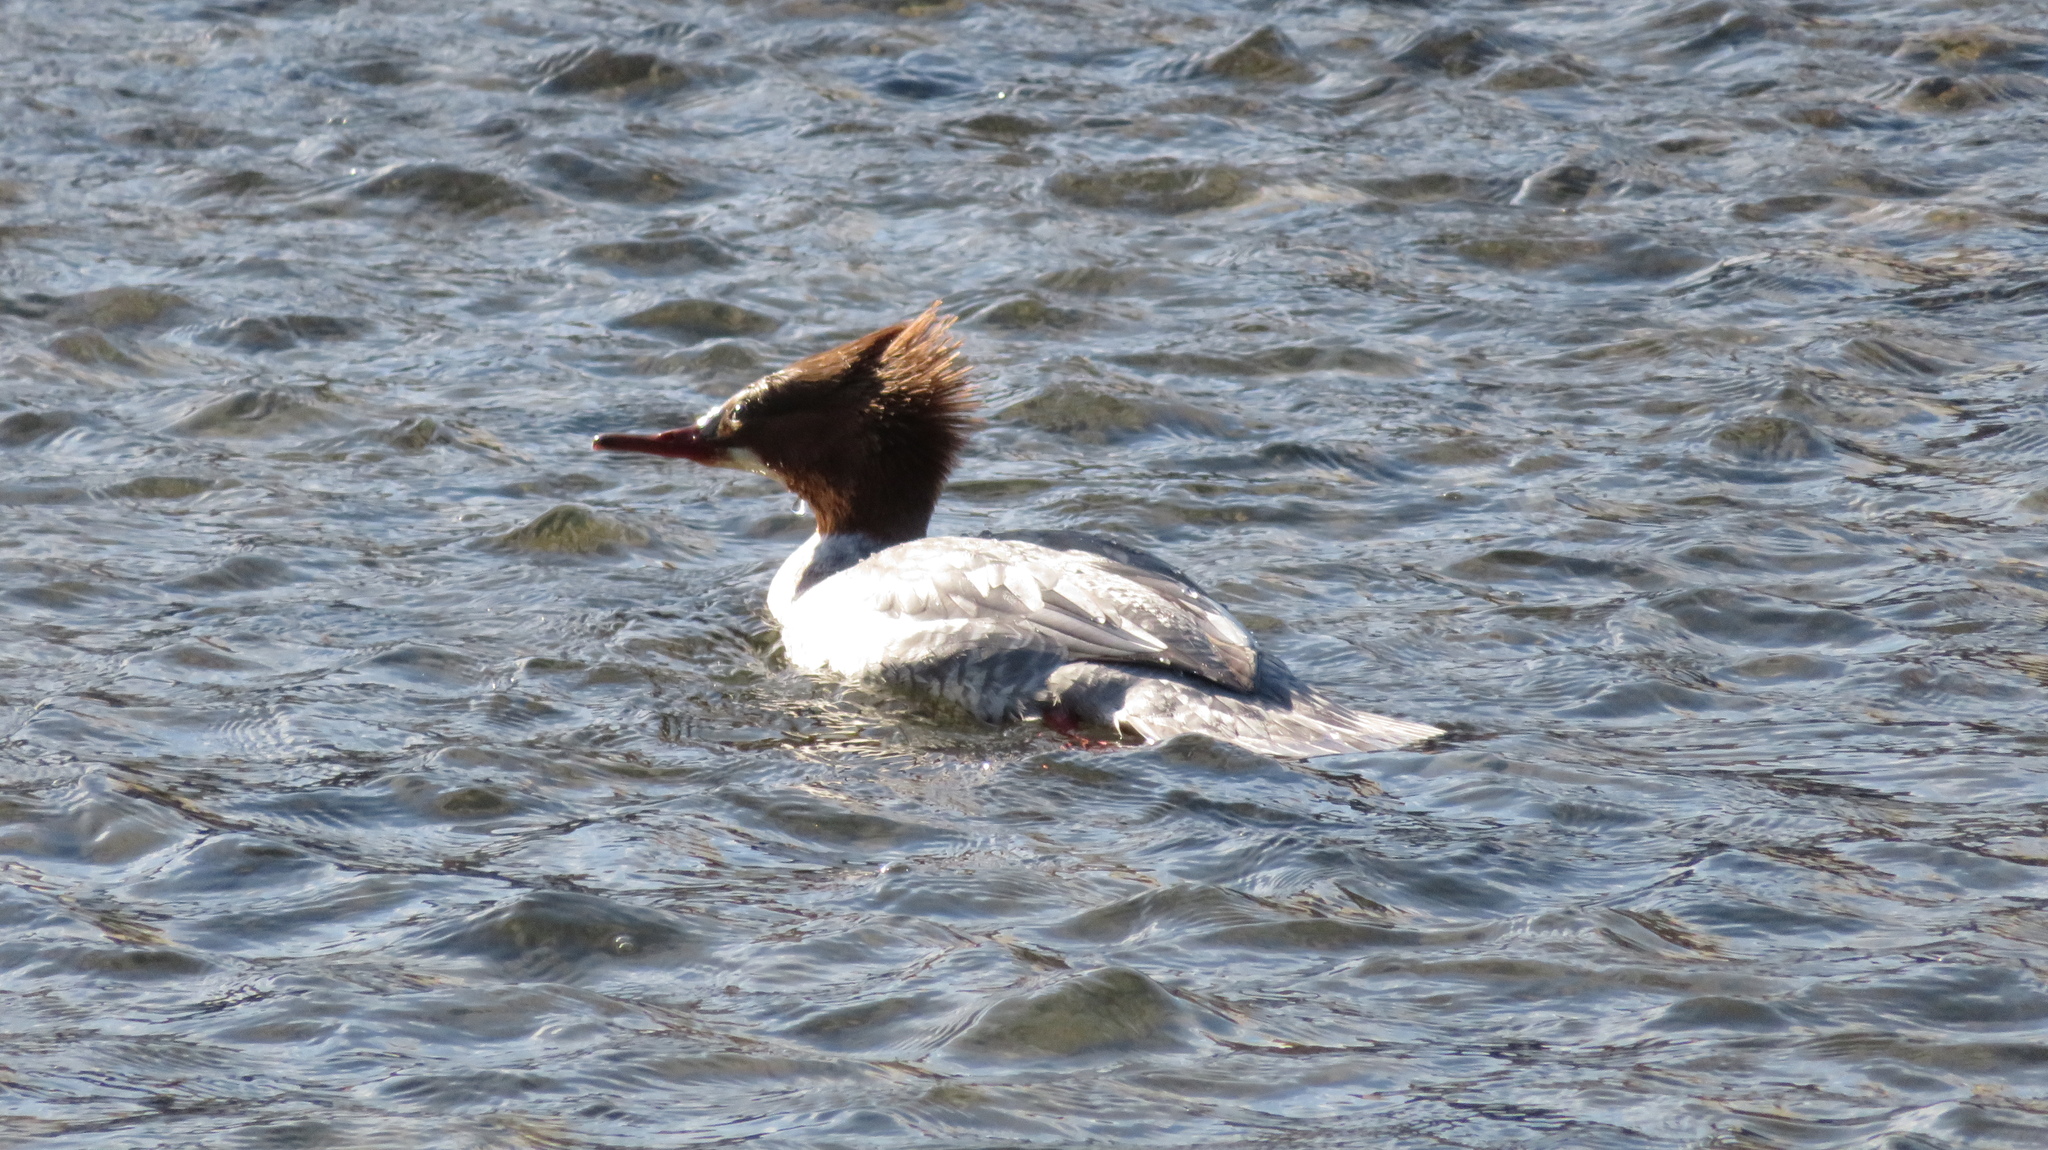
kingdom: Animalia
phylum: Chordata
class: Aves
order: Anseriformes
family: Anatidae
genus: Mergus
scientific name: Mergus merganser
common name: Common merganser
